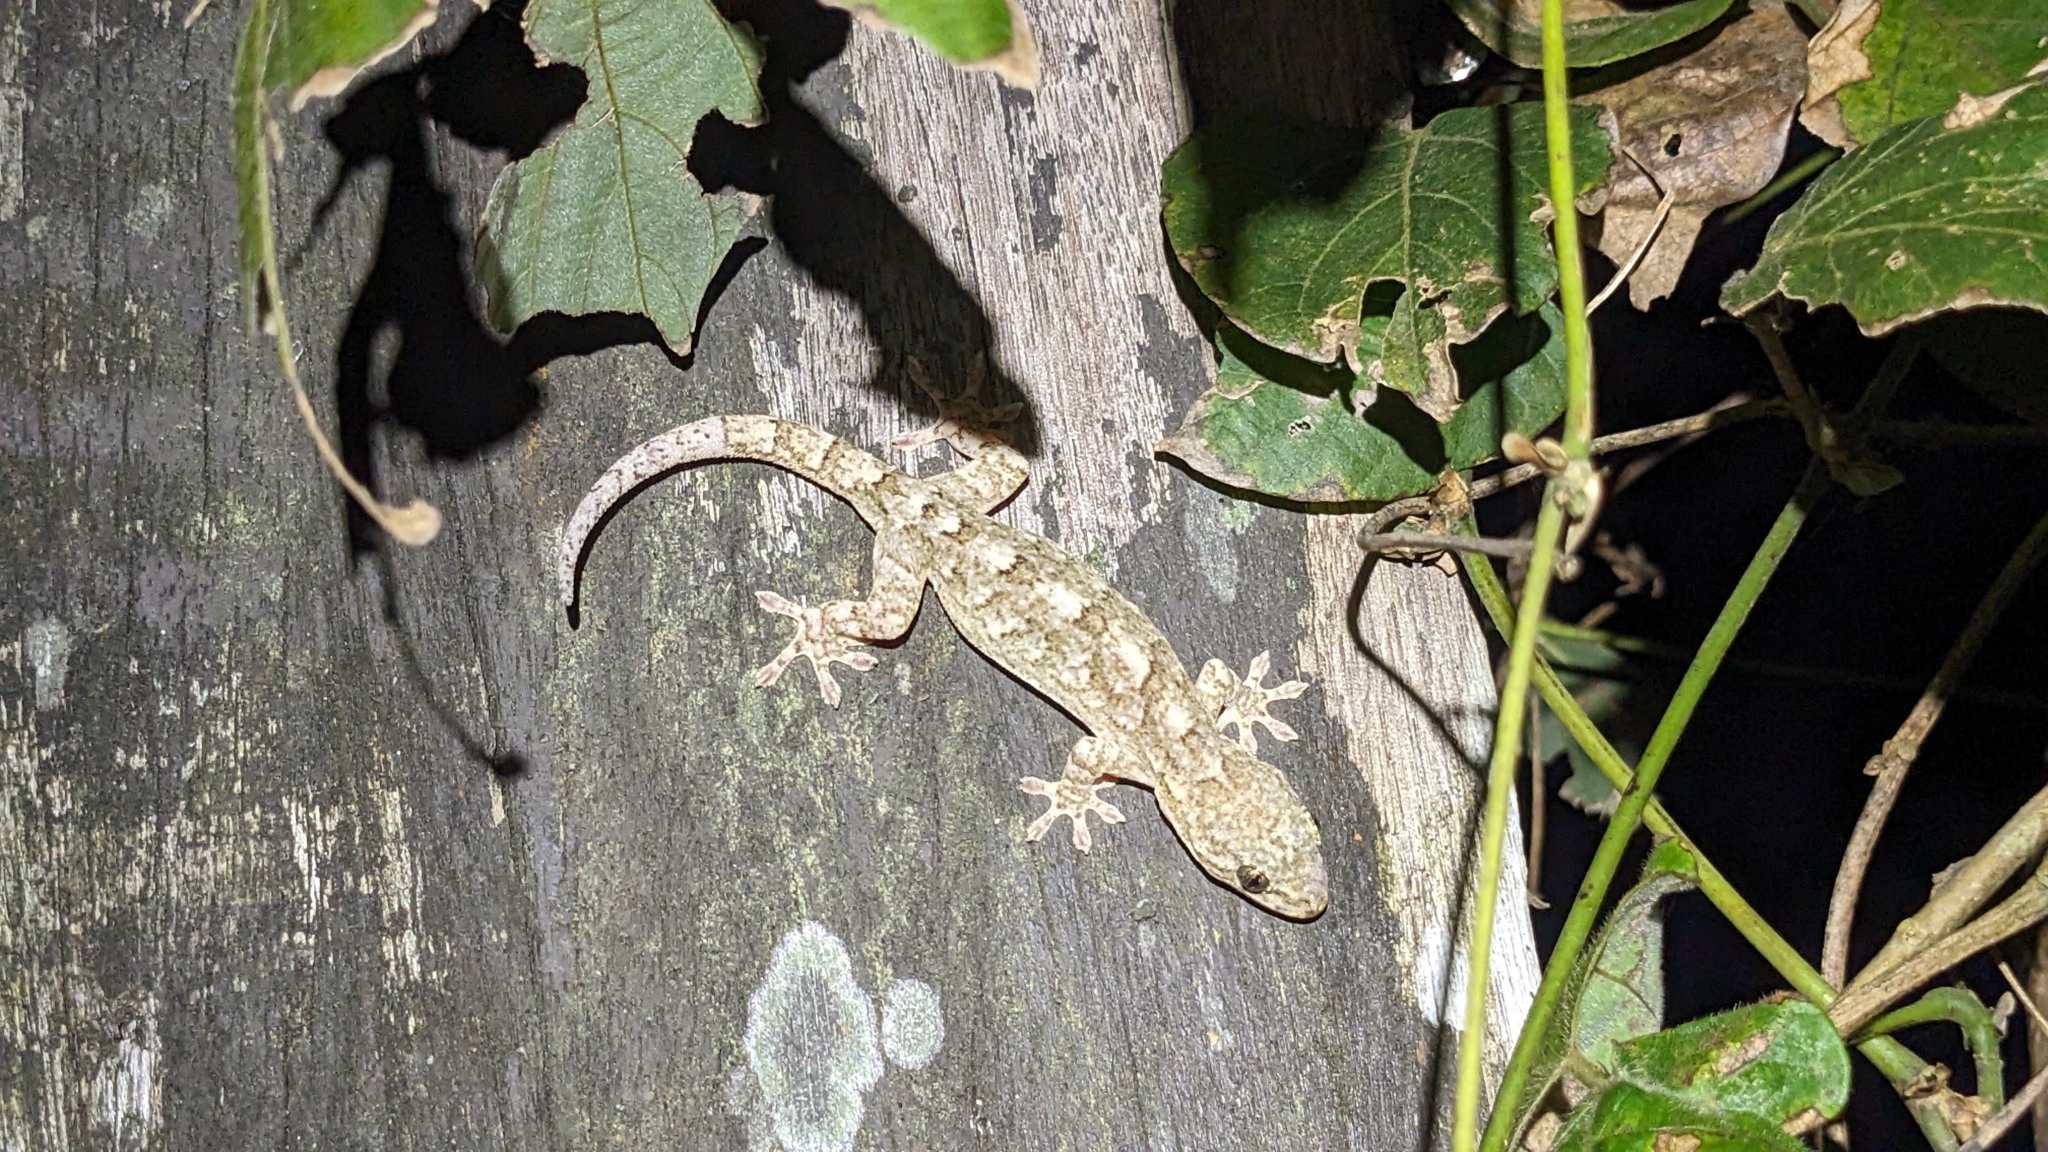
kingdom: Animalia
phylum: Chordata
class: Squamata
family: Gekkonidae
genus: Gekko
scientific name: Gekko hokouensis
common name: Kwangsi gecko
